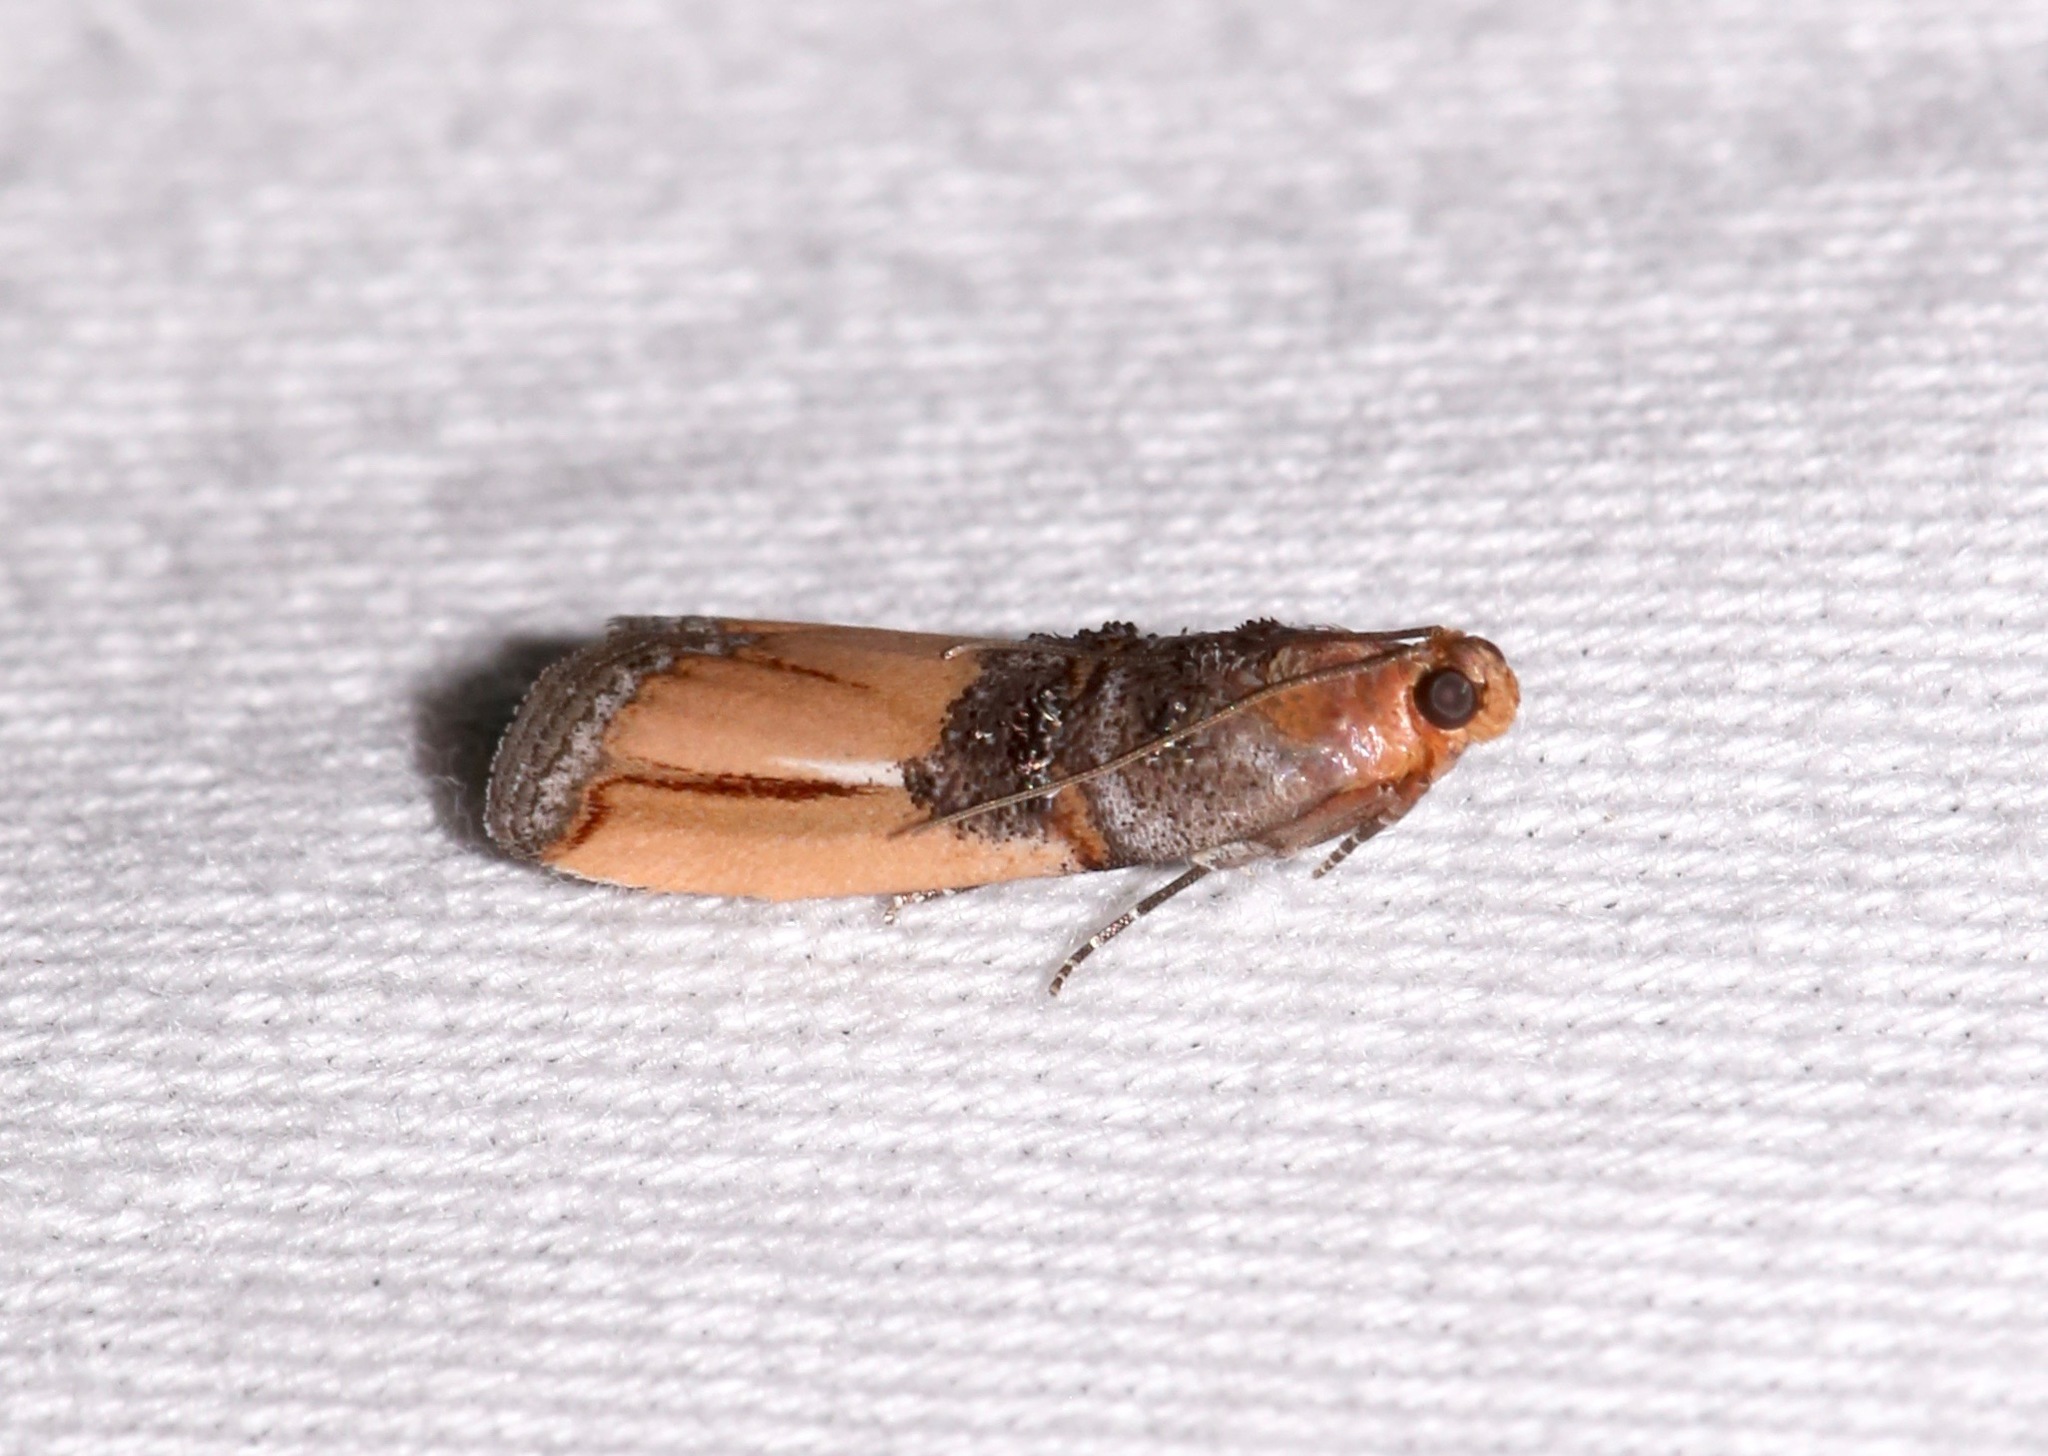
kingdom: Animalia
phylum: Arthropoda
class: Insecta
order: Lepidoptera
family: Pyralidae
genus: Dasypyga
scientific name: Dasypyga alternosquamella
